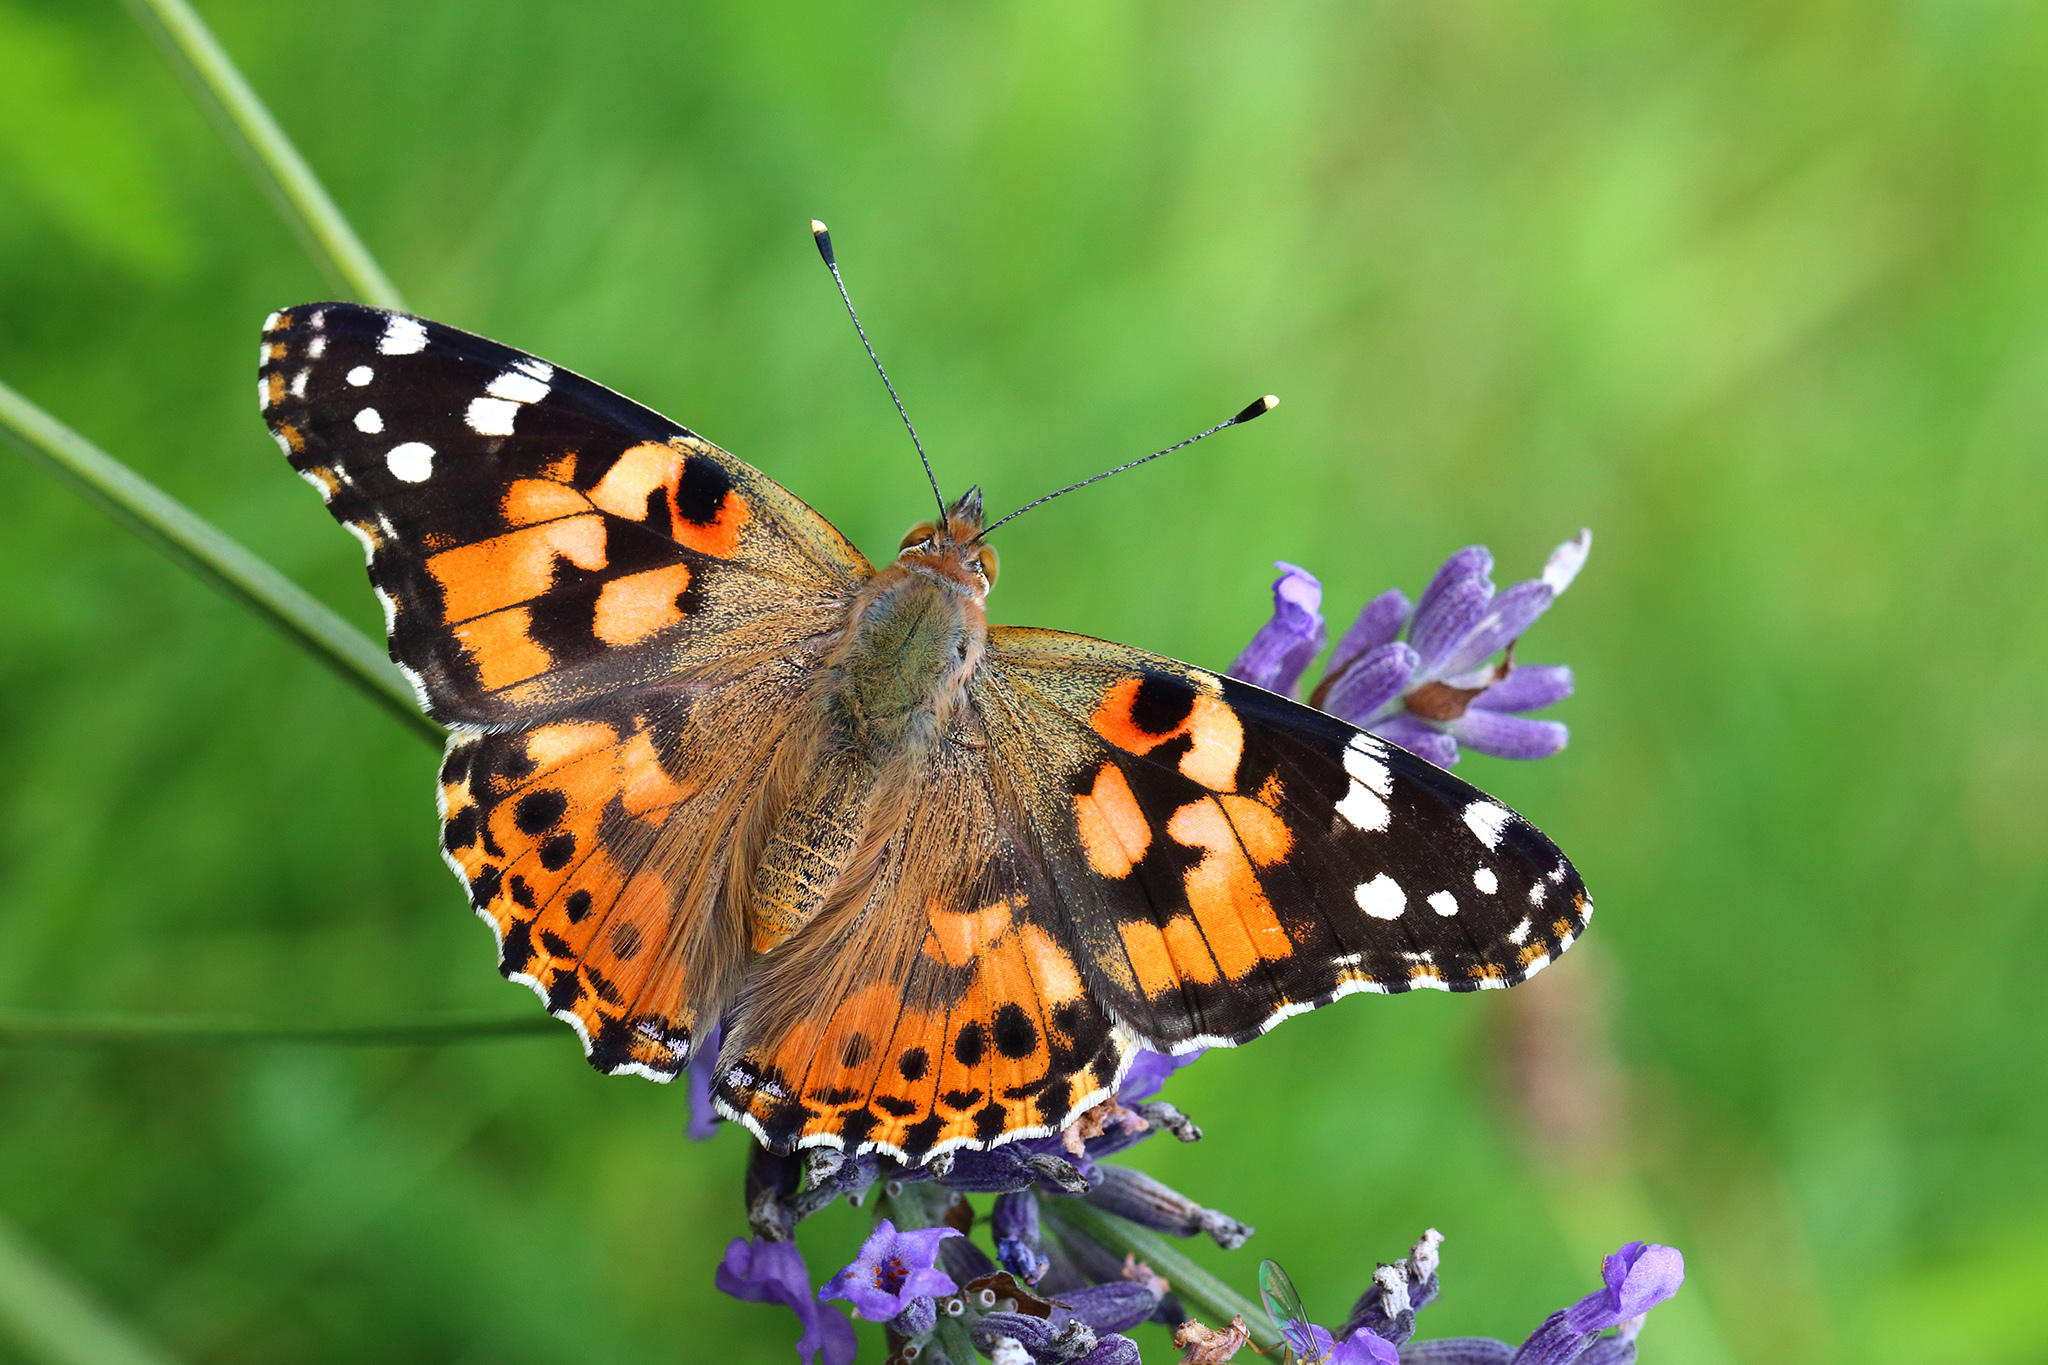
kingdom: Animalia
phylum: Arthropoda
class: Insecta
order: Lepidoptera
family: Nymphalidae
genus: Vanessa
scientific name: Vanessa cardui
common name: Painted lady
